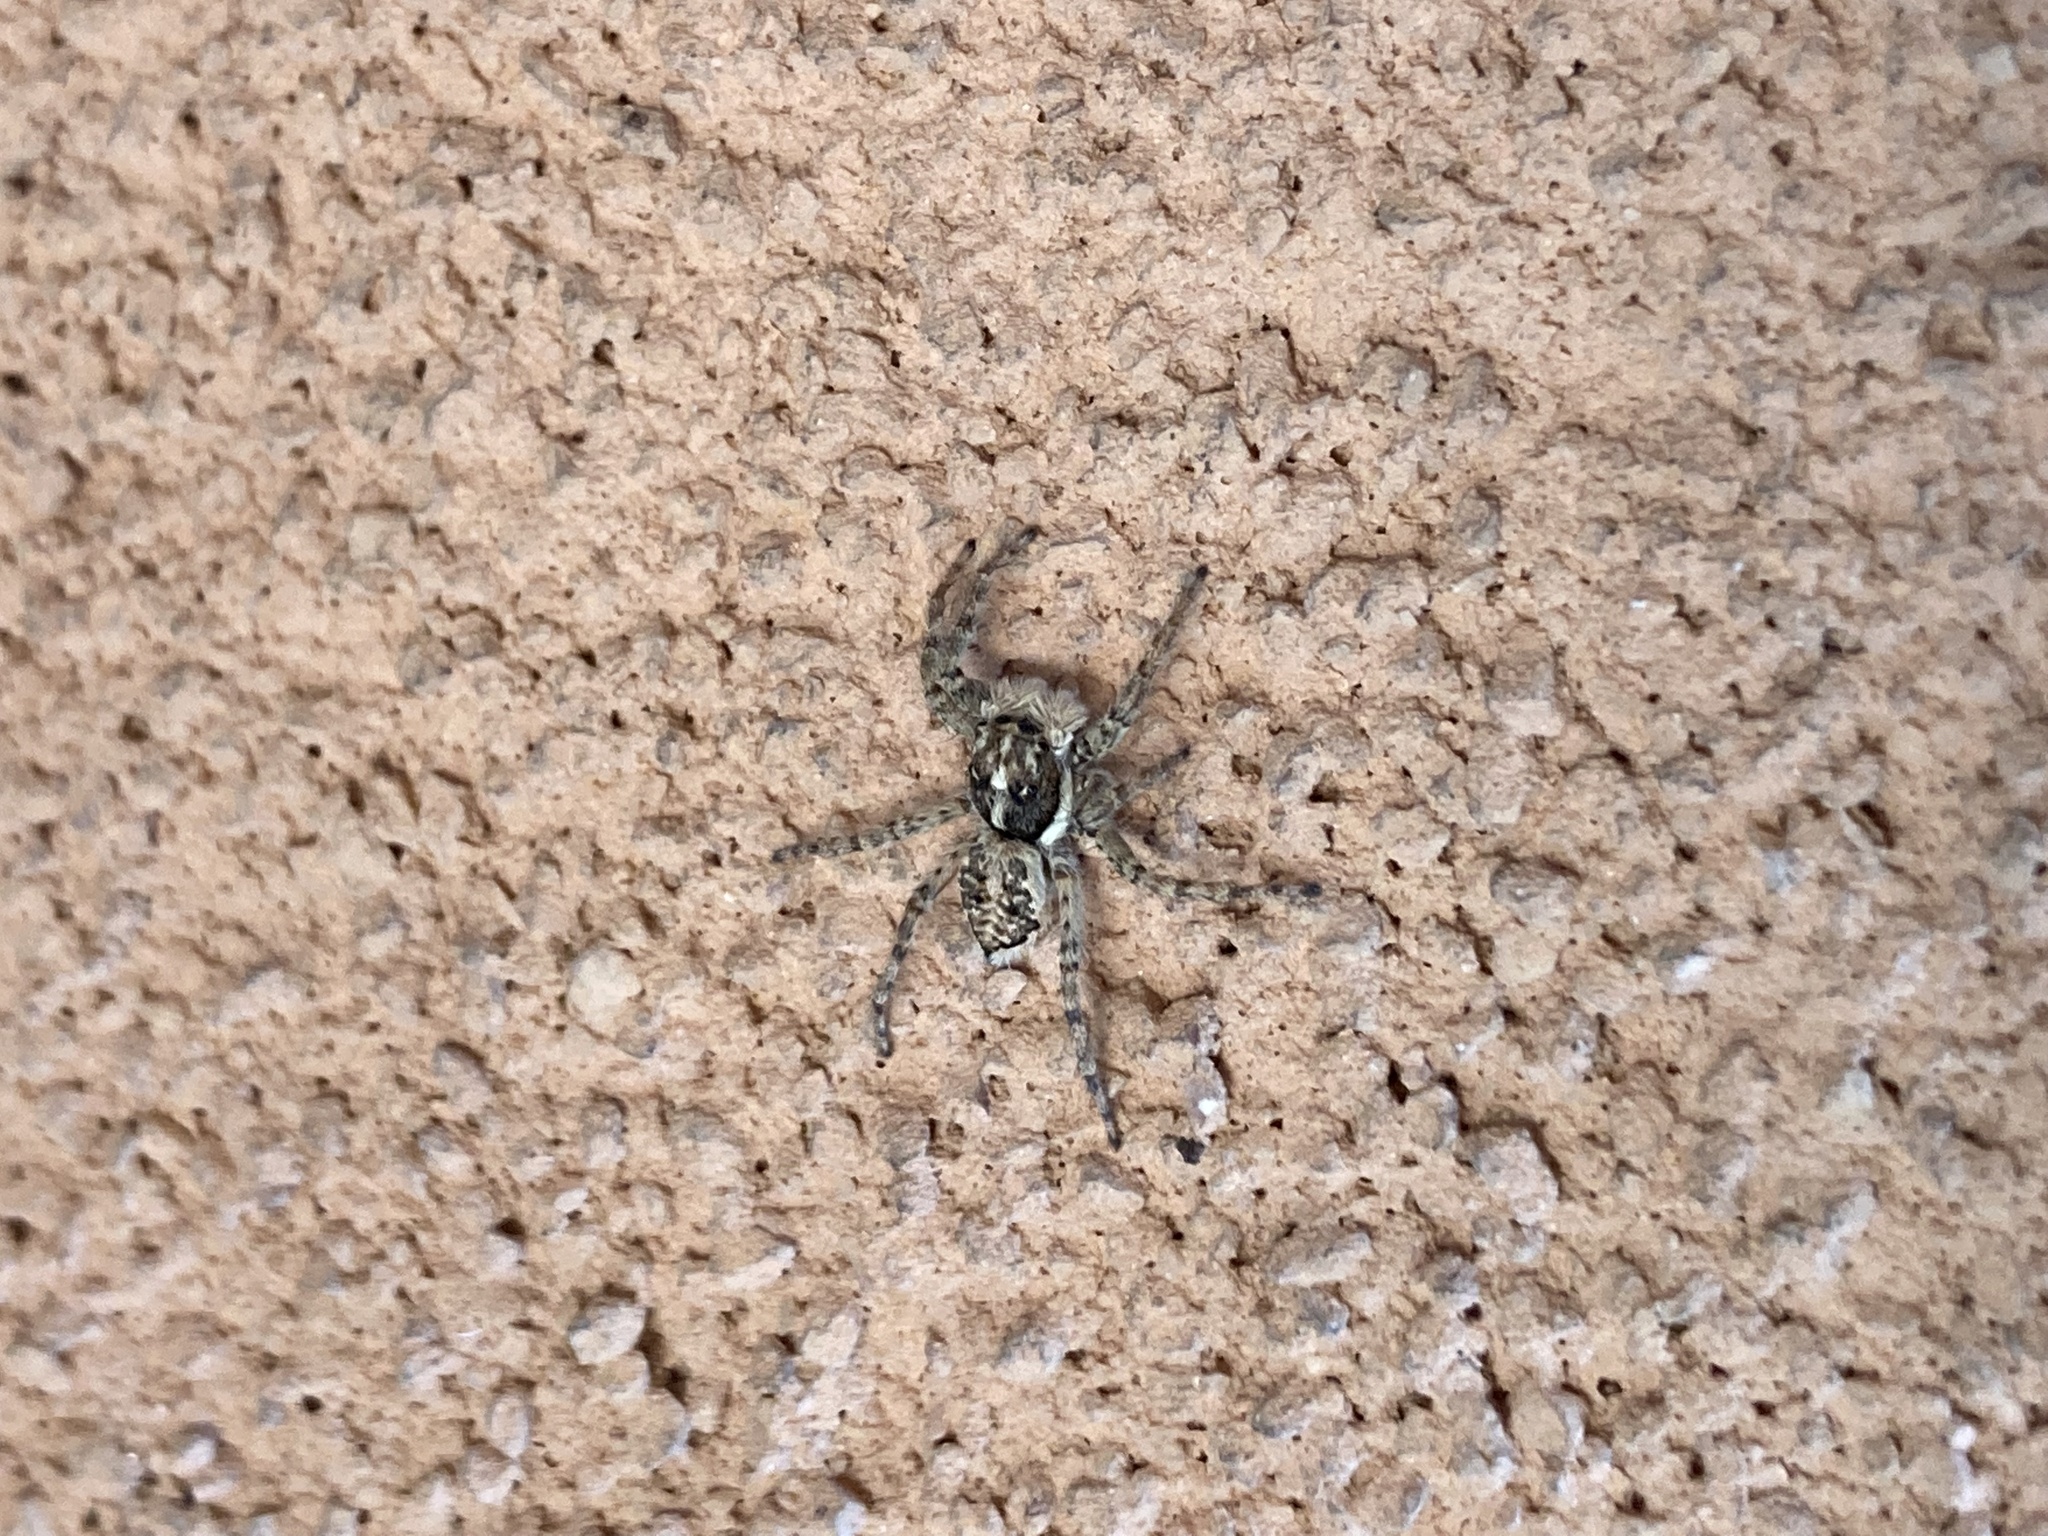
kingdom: Animalia
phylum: Arthropoda
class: Arachnida
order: Araneae
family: Salticidae
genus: Menemerus
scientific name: Menemerus semilimbatus
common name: Jumping spider
